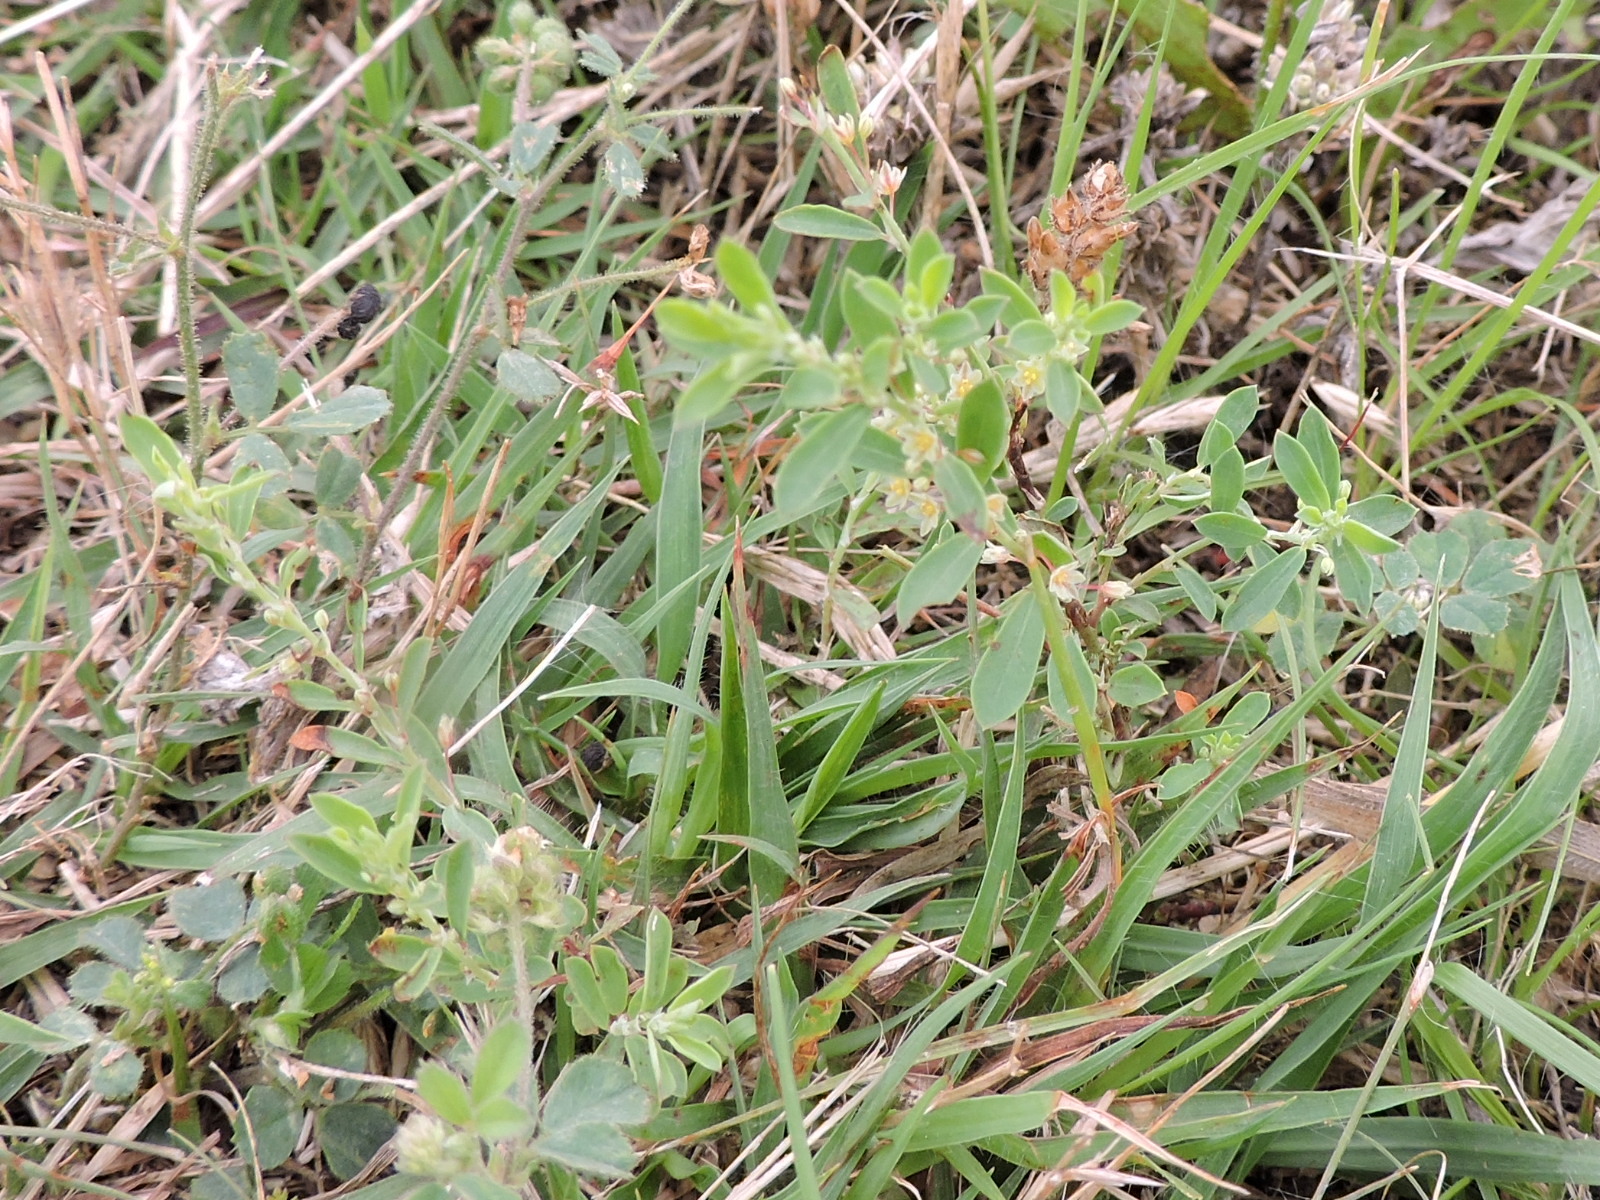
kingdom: Plantae
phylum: Tracheophyta
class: Magnoliopsida
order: Malpighiales
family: Phyllanthaceae
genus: Phyllanthus
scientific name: Phyllanthus polygonoides
